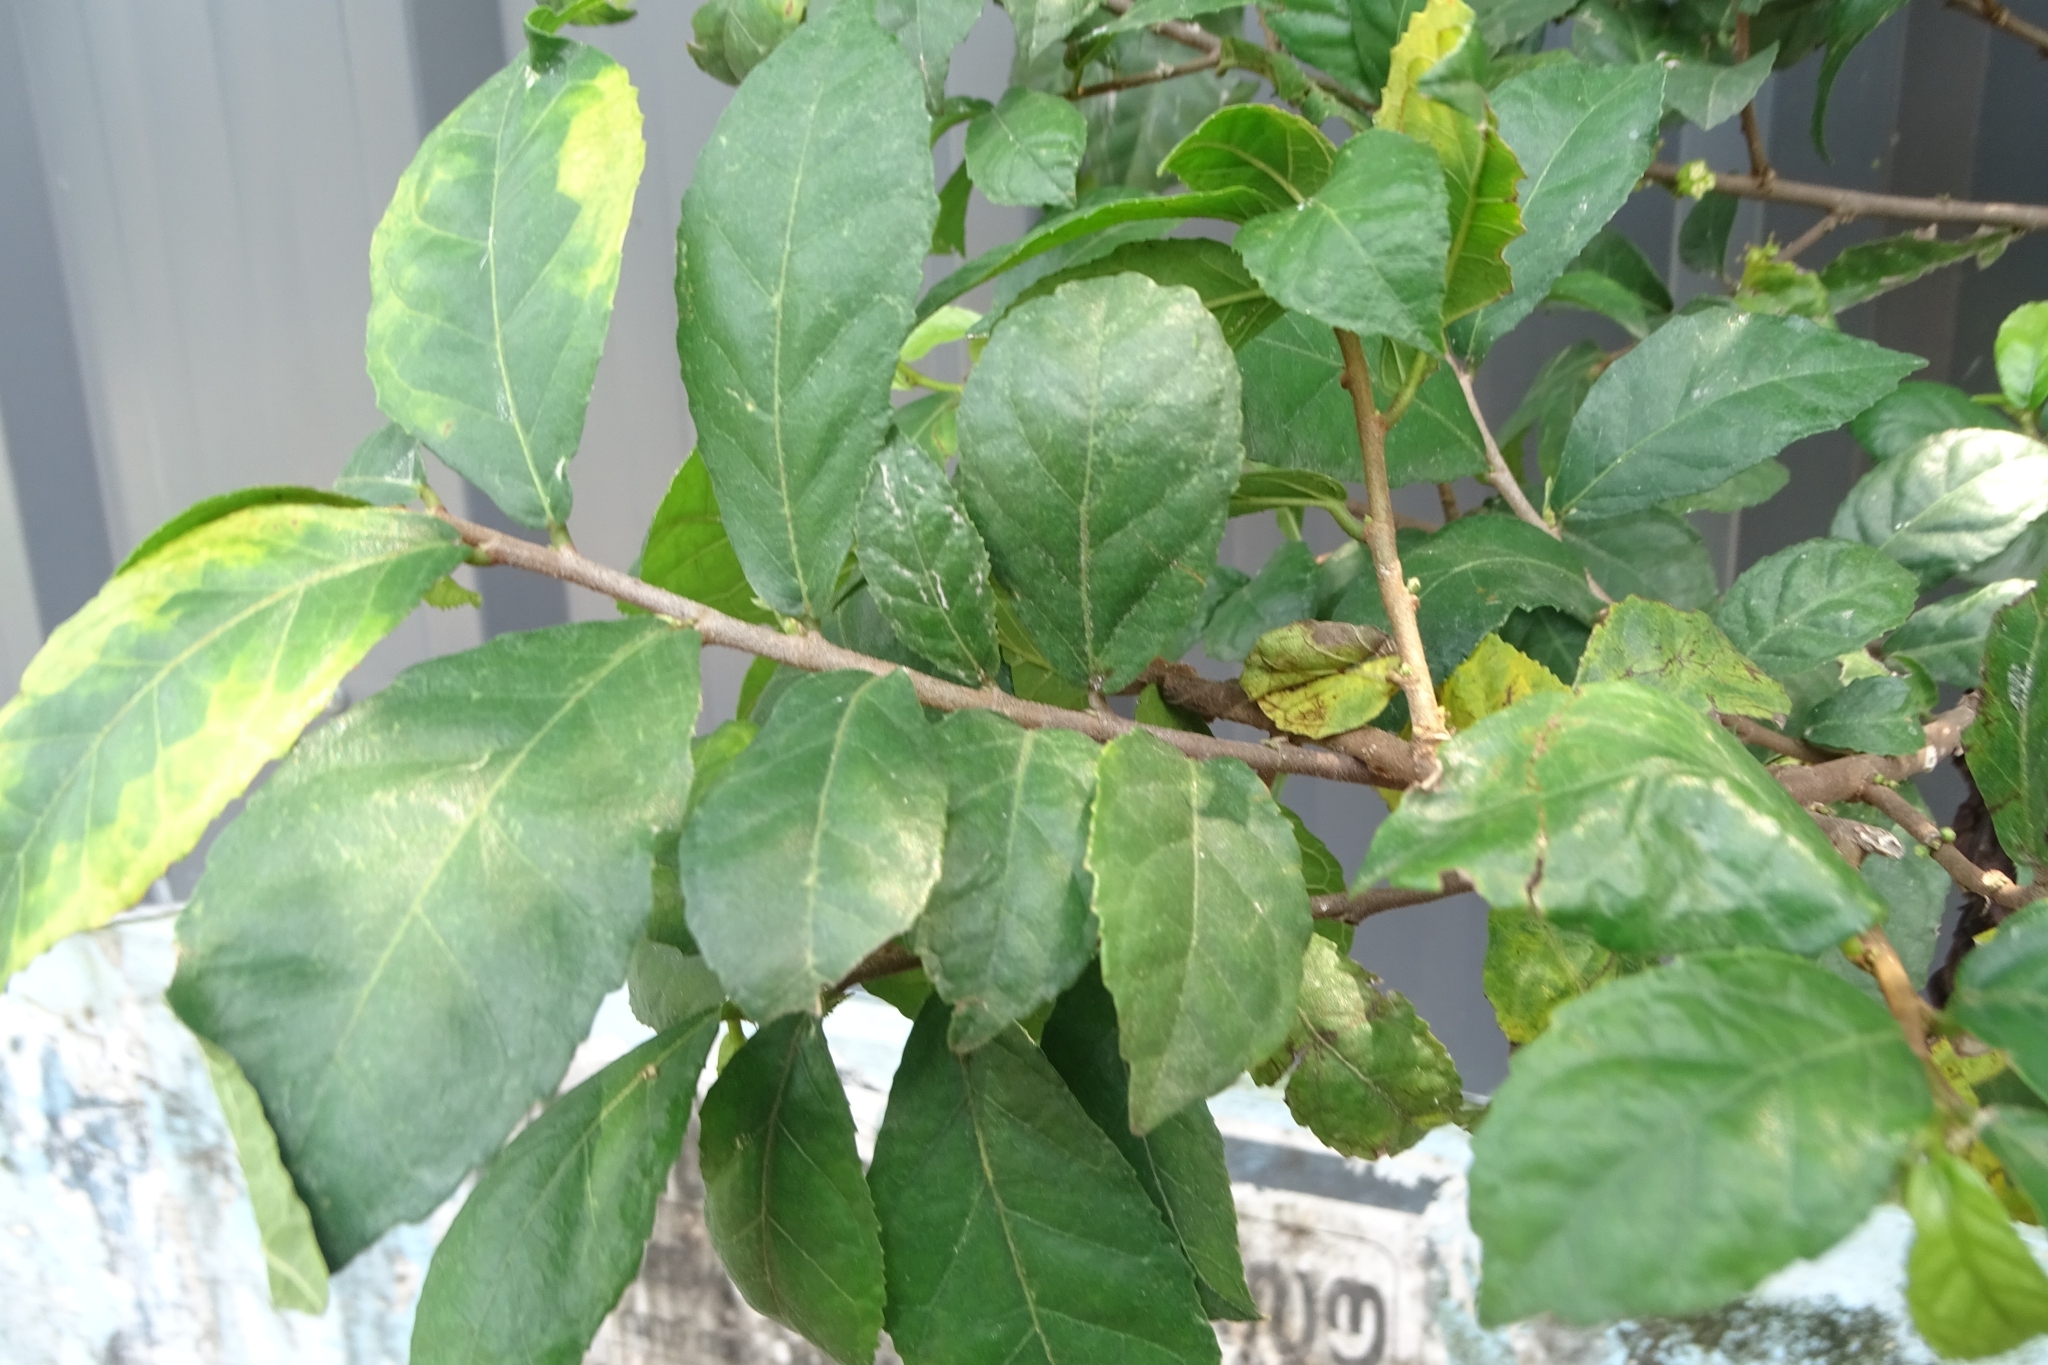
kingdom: Plantae
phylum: Tracheophyta
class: Magnoliopsida
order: Rosales
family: Moraceae
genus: Streblus
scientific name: Streblus asper
